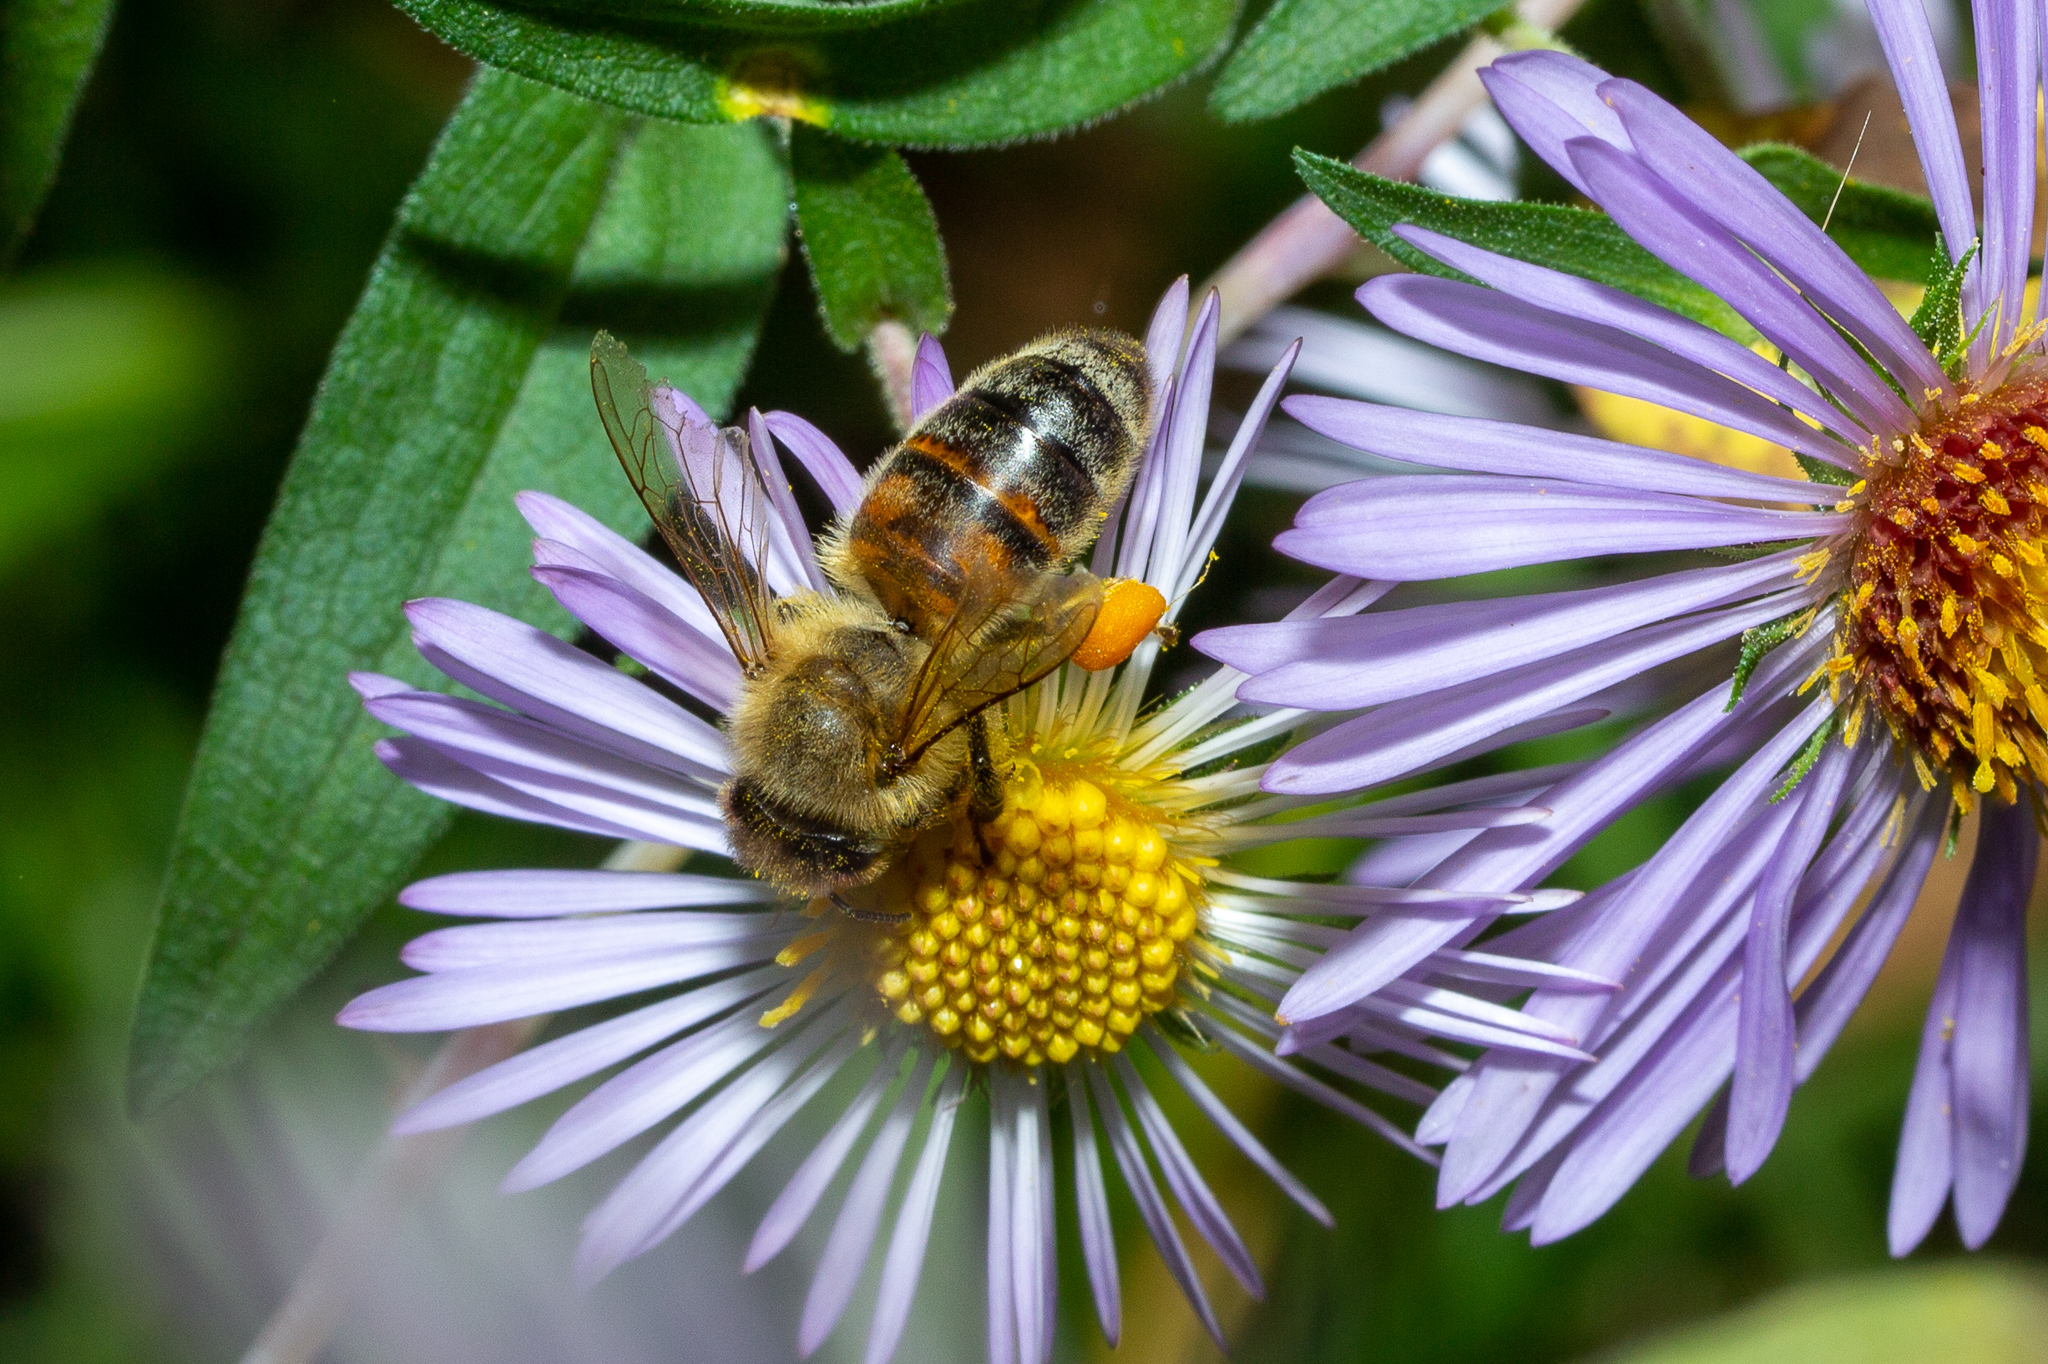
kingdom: Animalia
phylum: Arthropoda
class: Insecta
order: Hymenoptera
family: Apidae
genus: Apis
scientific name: Apis mellifera
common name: Honey bee
